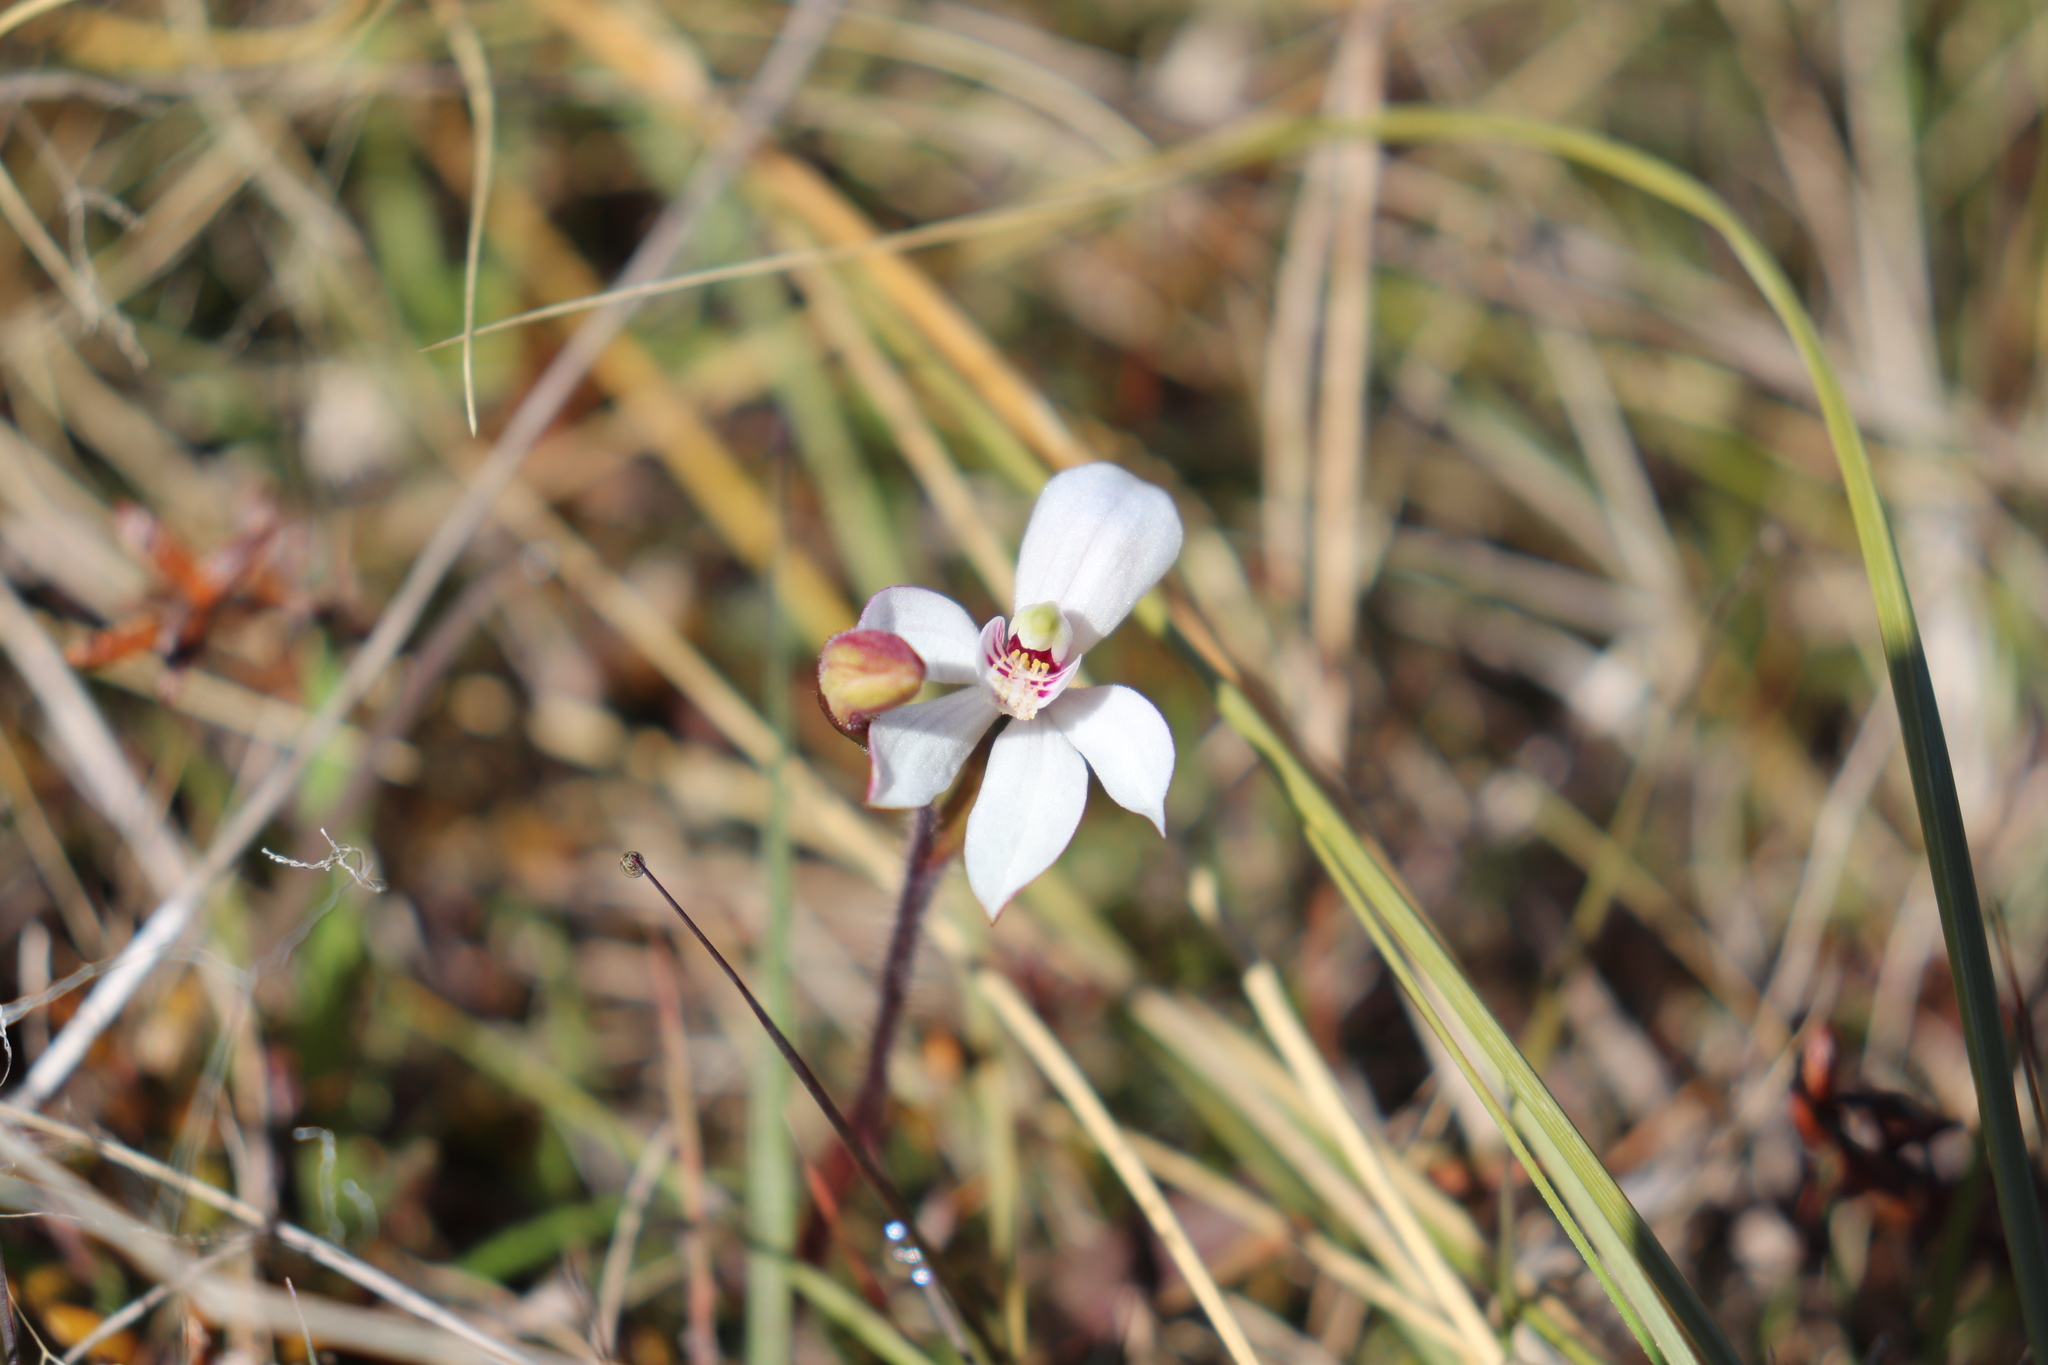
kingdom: Plantae
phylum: Tracheophyta
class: Liliopsida
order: Asparagales
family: Orchidaceae
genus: Caladenia
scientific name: Caladenia lyallii
